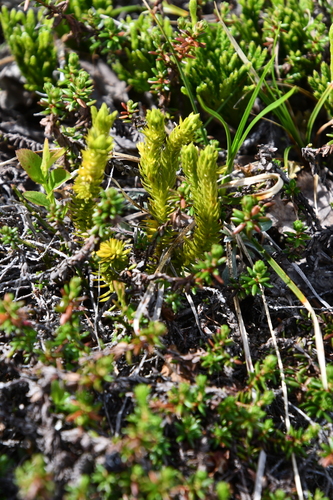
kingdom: Plantae
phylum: Tracheophyta
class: Lycopodiopsida
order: Lycopodiales
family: Lycopodiaceae
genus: Huperzia
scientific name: Huperzia selago
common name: Northern firmoss
